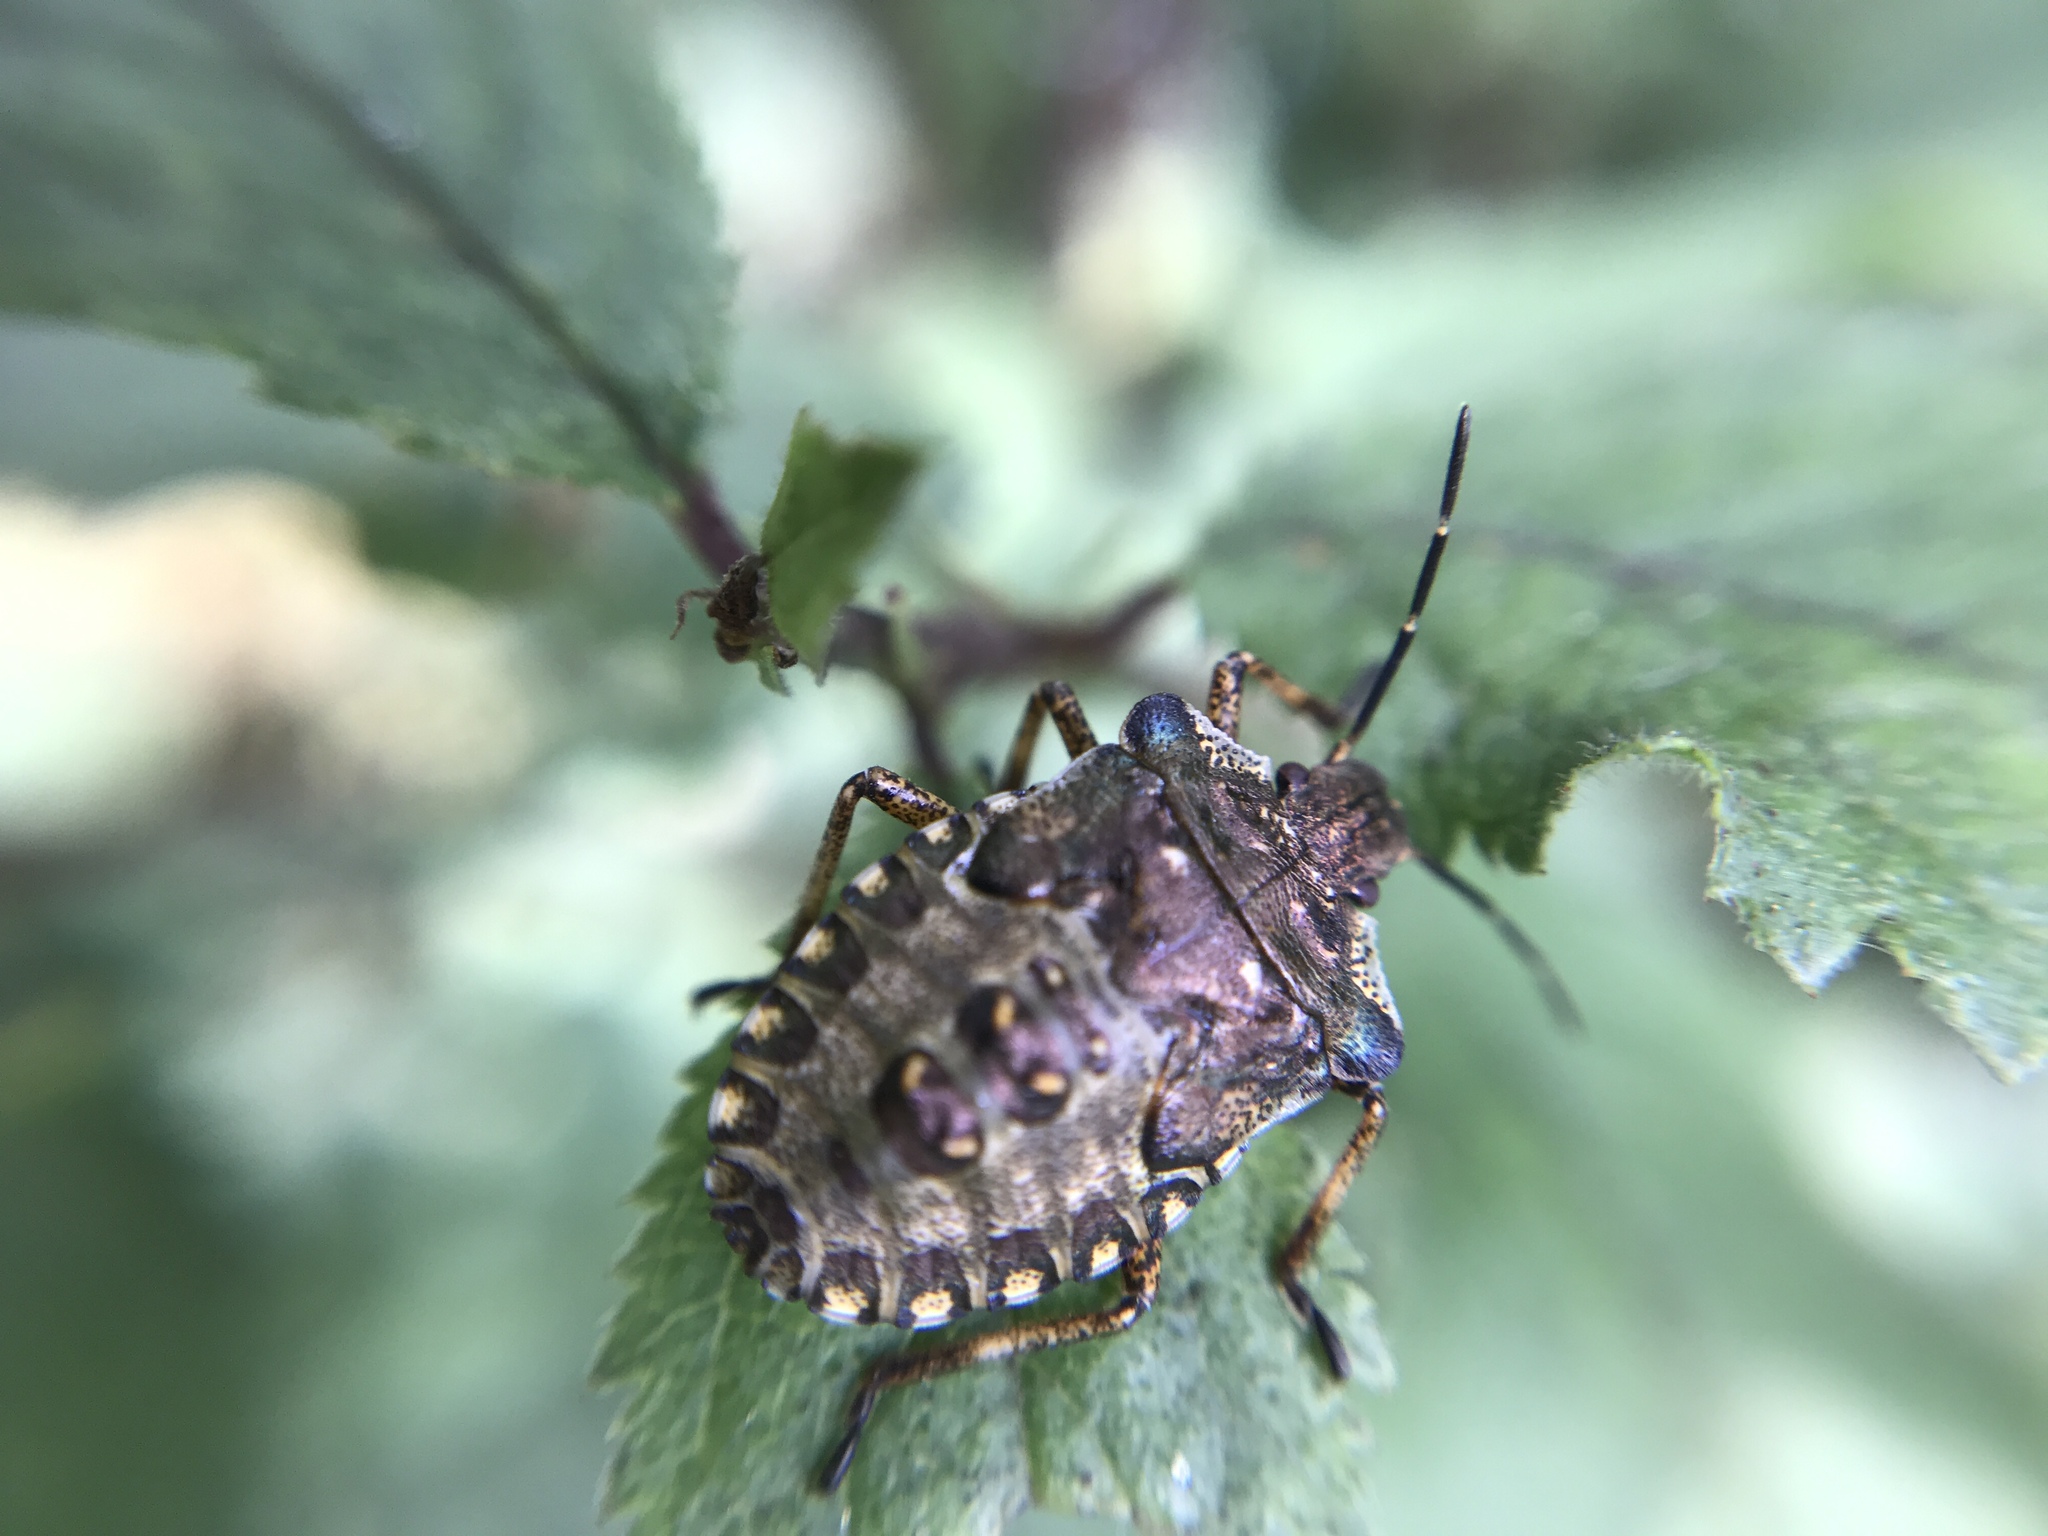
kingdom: Animalia
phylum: Arthropoda
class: Insecta
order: Hemiptera
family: Pentatomidae
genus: Pentatoma
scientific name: Pentatoma rufipes
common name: Forest bug
